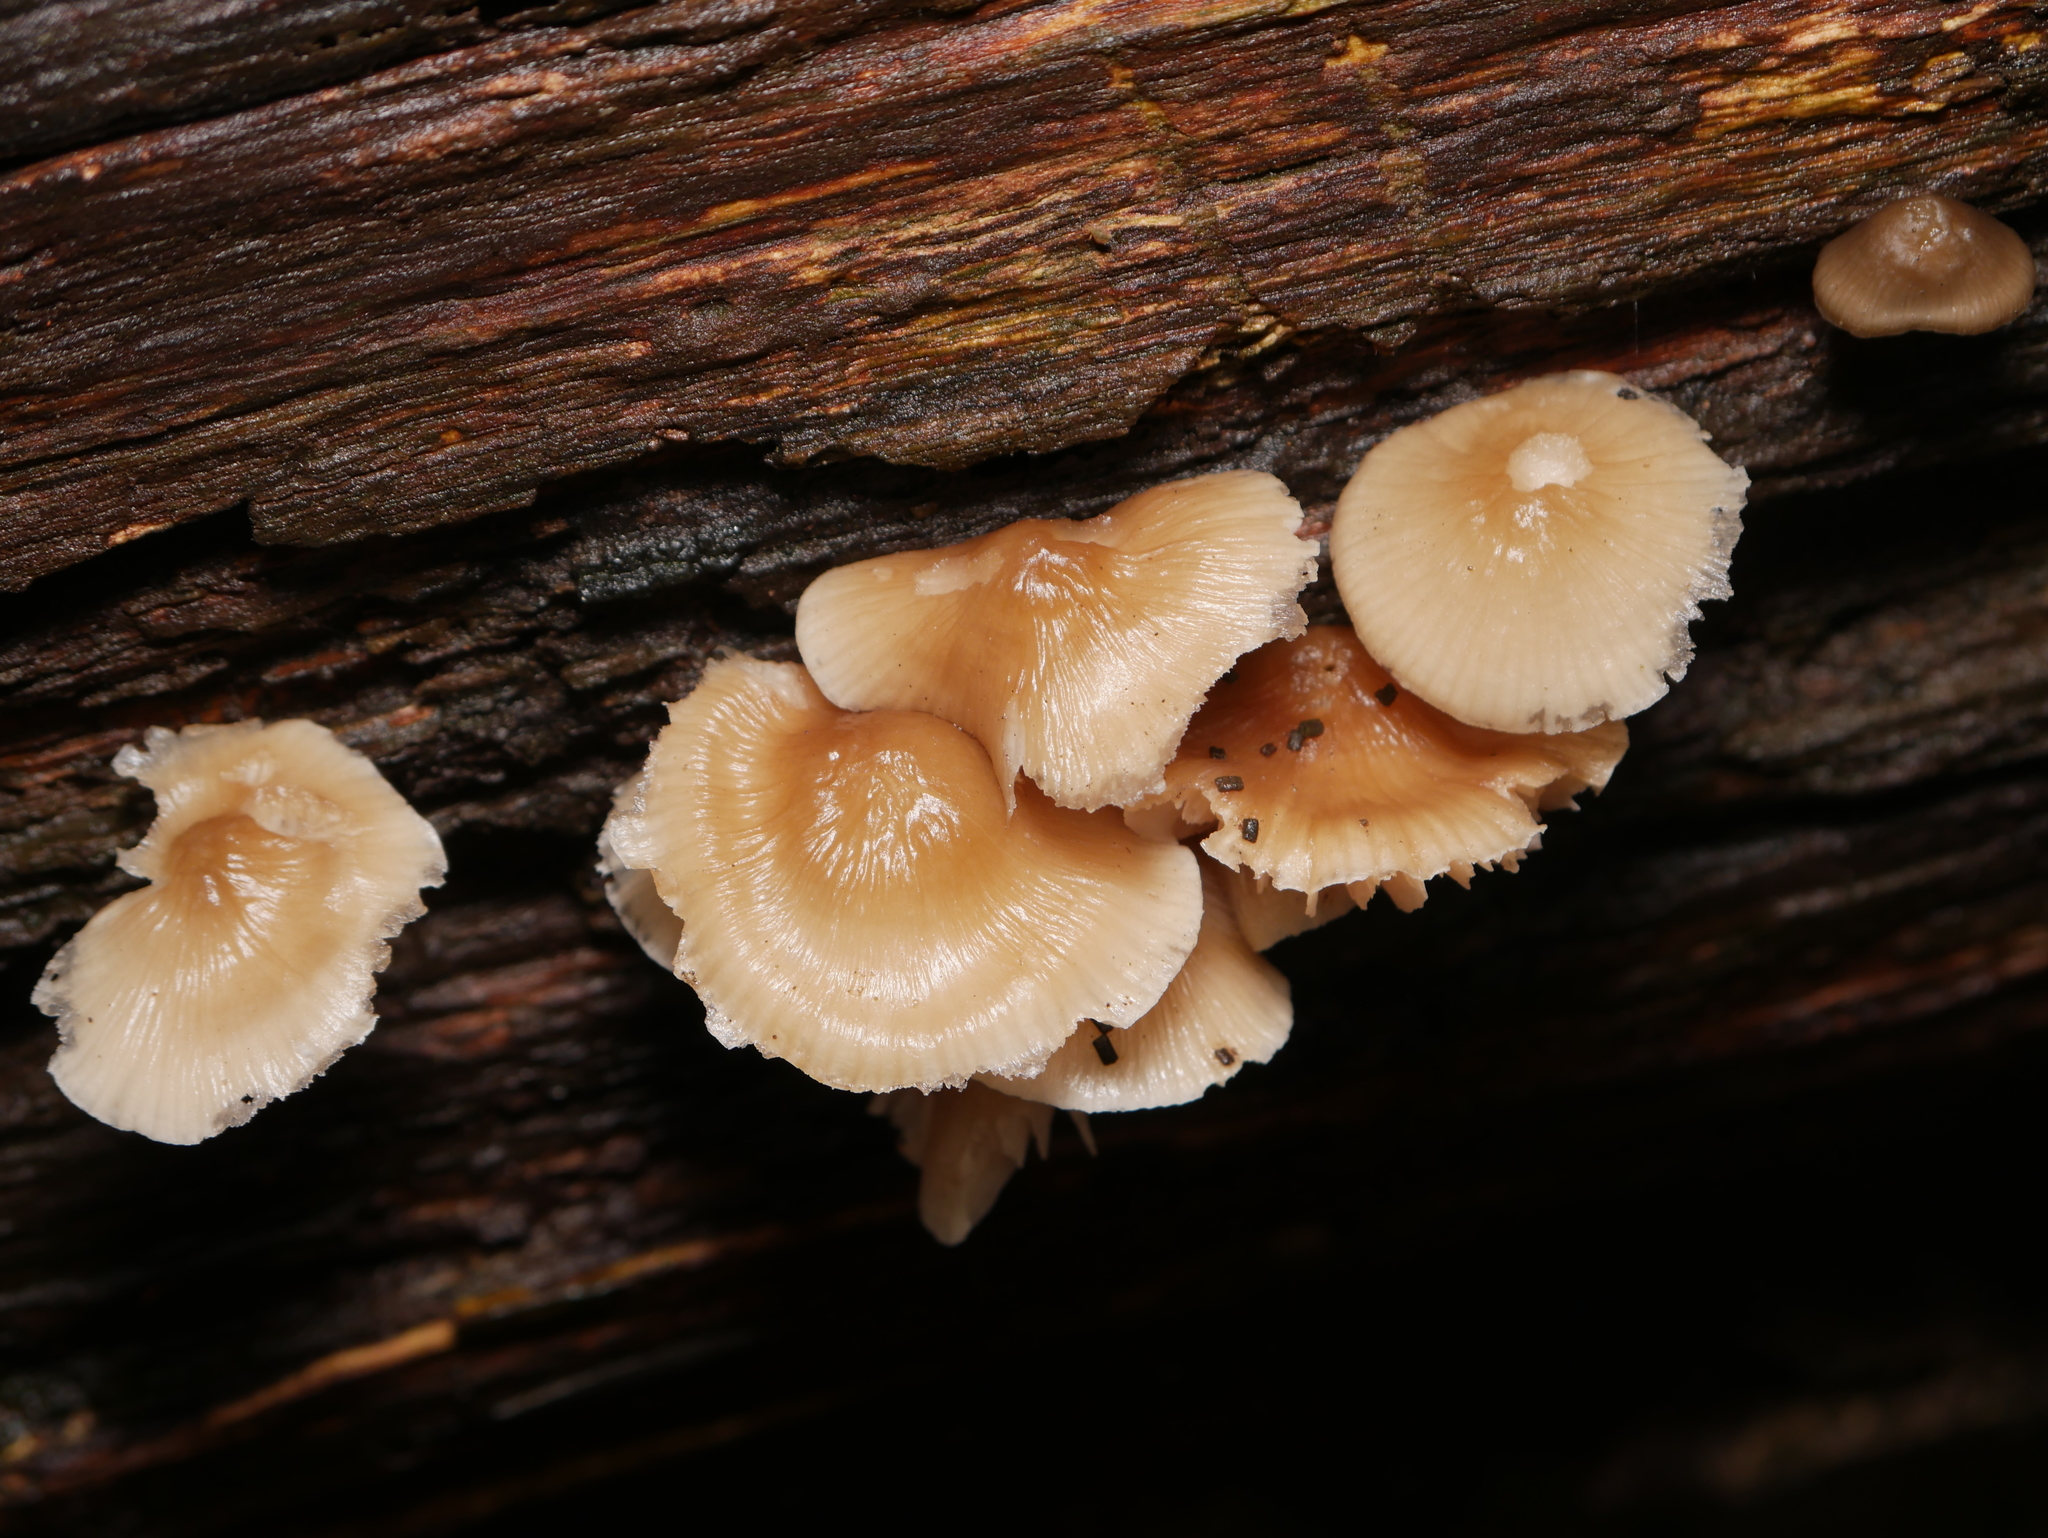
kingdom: Fungi
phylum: Basidiomycota
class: Agaricomycetes
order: Agaricales
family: Mycenaceae
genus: Mycena
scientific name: Mycena galericulata
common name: Bonnet mycena
